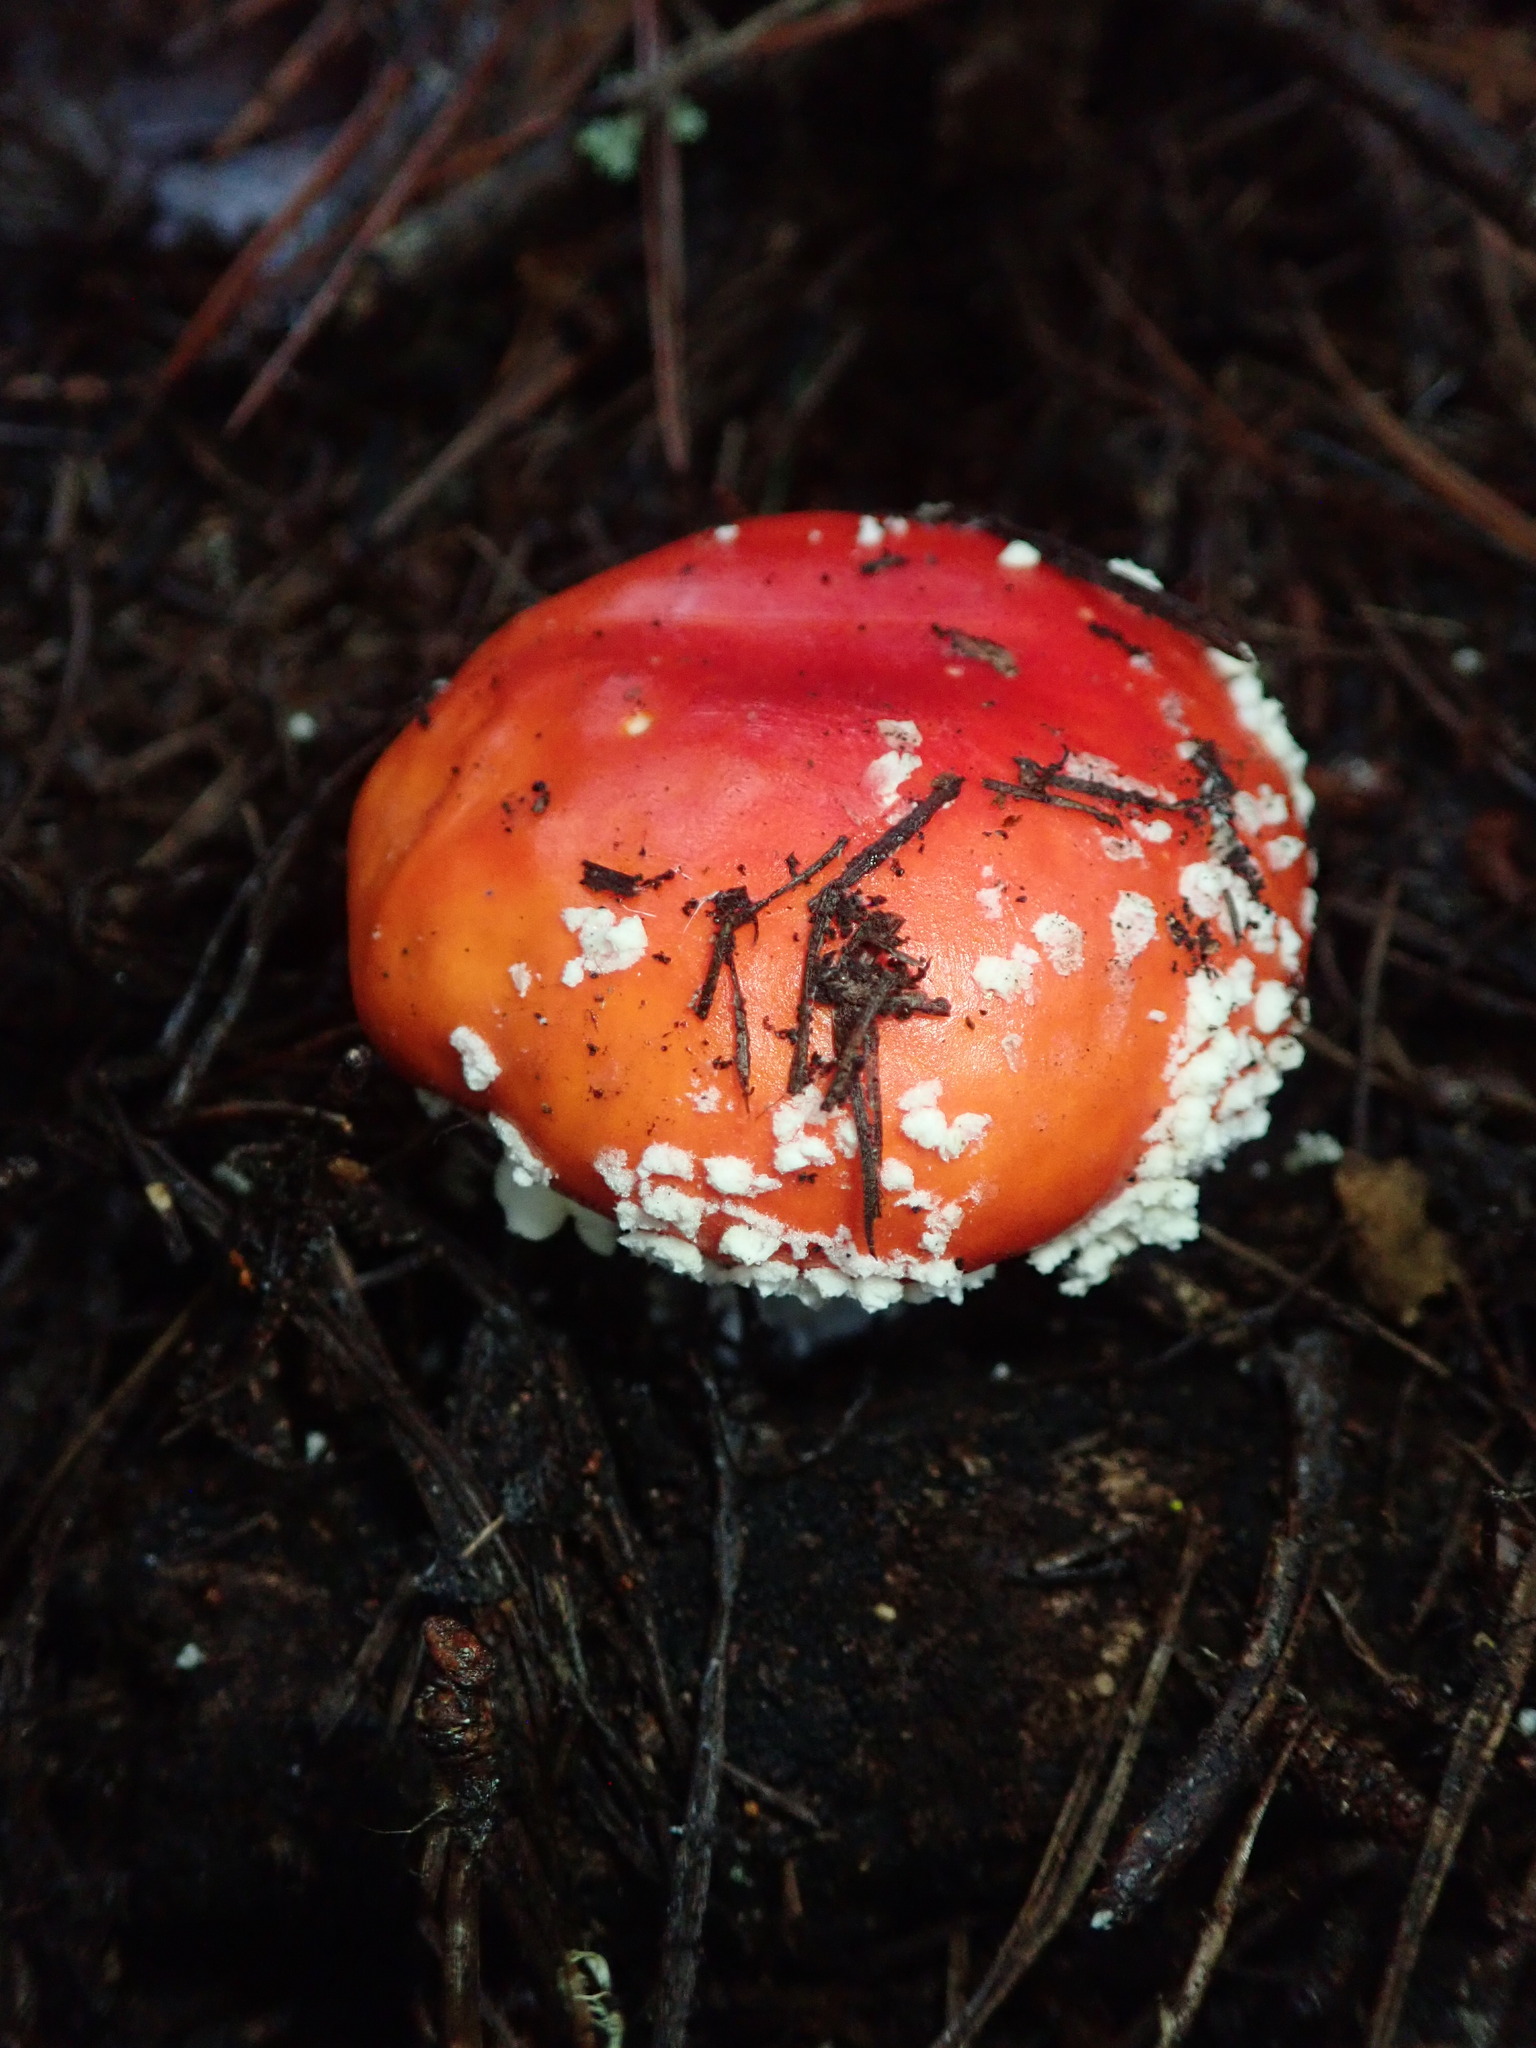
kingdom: Fungi
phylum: Basidiomycota
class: Agaricomycetes
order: Agaricales
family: Amanitaceae
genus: Amanita
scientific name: Amanita muscaria
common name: Fly agaric
